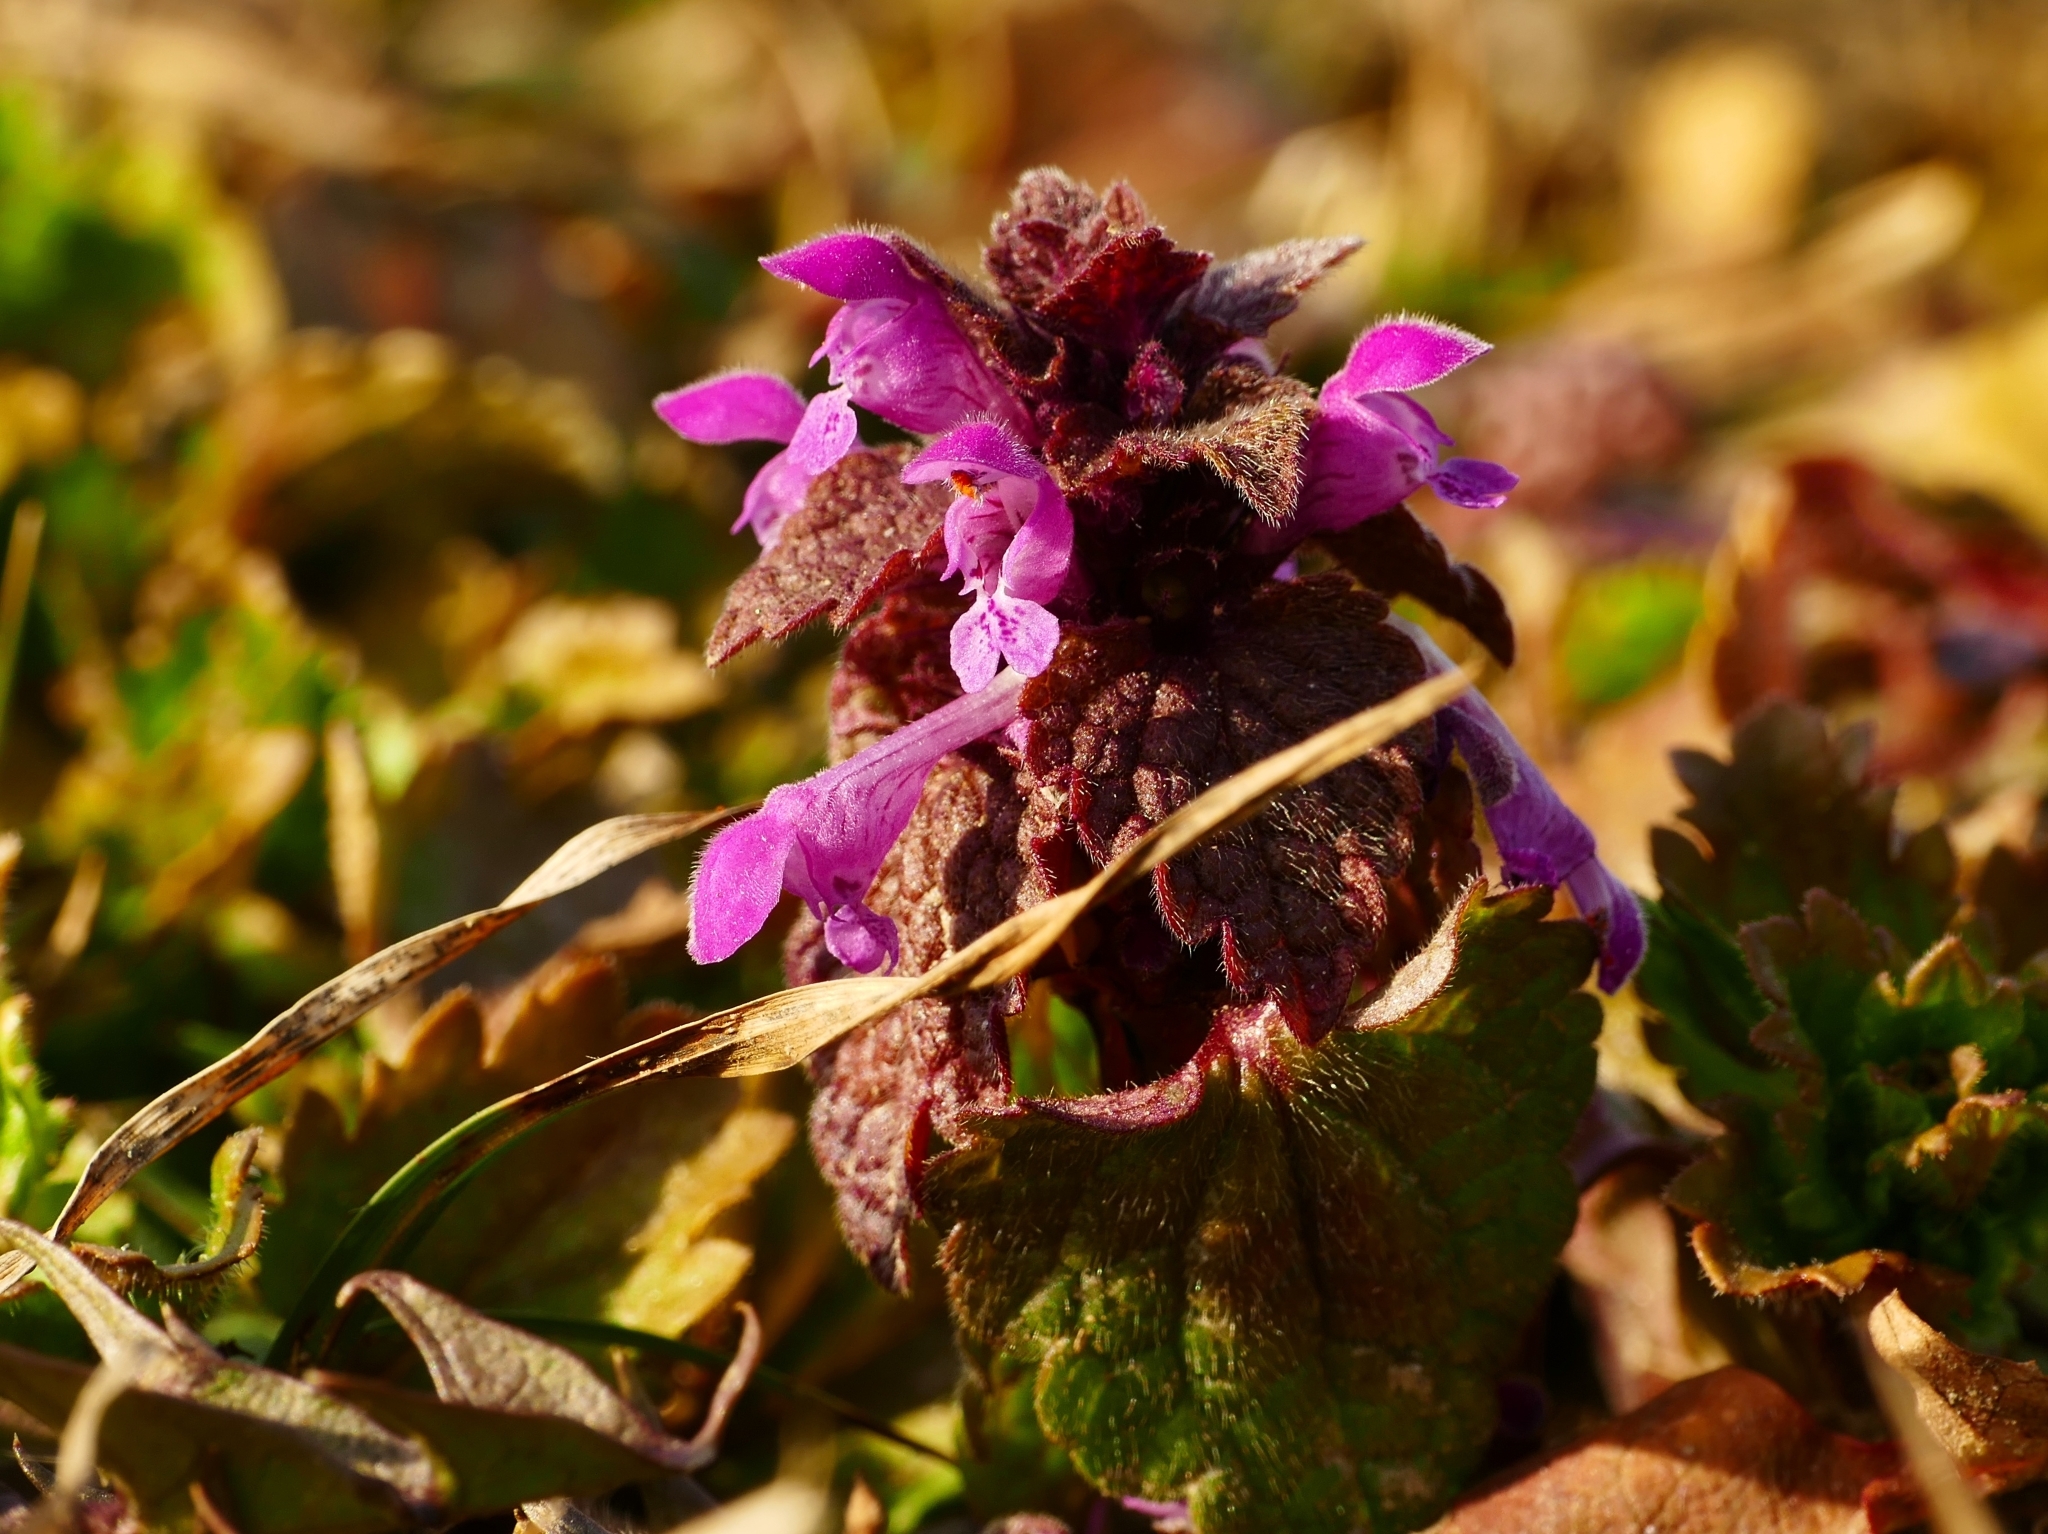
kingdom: Plantae
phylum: Tracheophyta
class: Magnoliopsida
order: Lamiales
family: Lamiaceae
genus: Lamium
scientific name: Lamium purpureum
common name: Red dead-nettle
